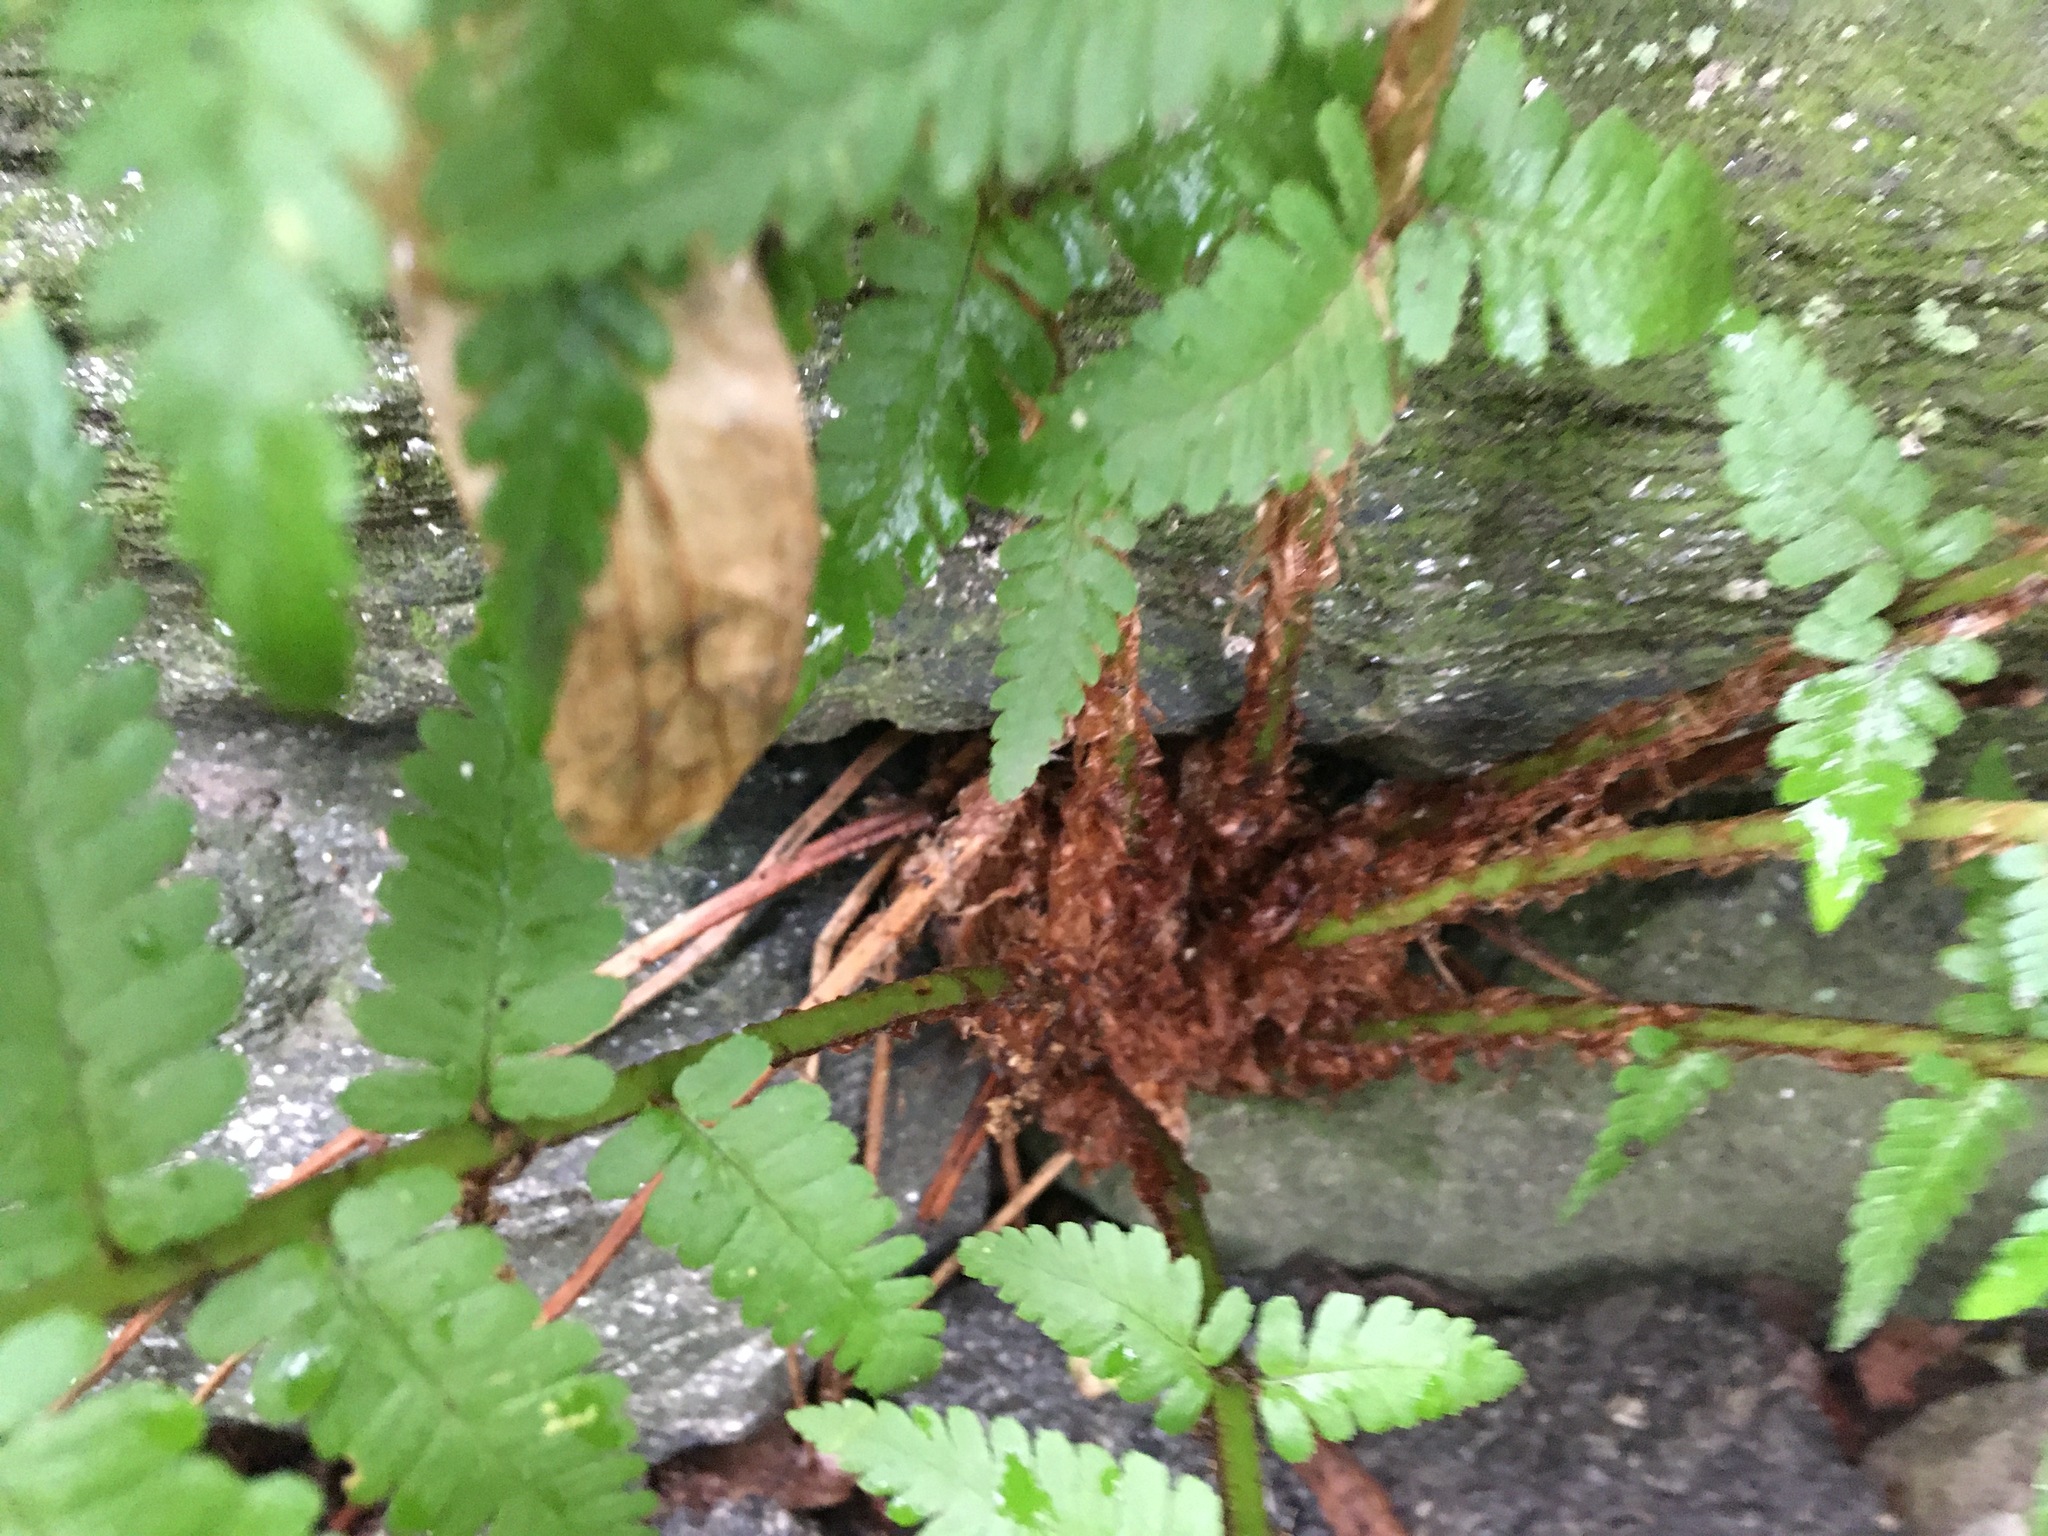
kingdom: Plantae
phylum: Tracheophyta
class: Polypodiopsida
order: Polypodiales
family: Dryopteridaceae
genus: Dryopteris
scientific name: Dryopteris marginalis
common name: Marginal wood fern
